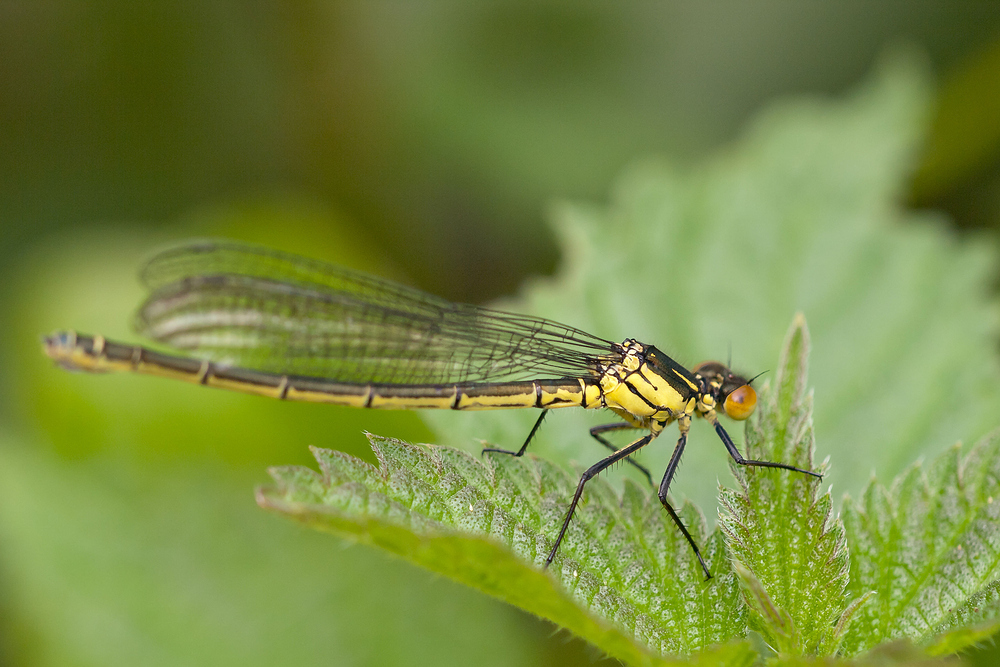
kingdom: Animalia
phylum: Arthropoda
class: Insecta
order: Odonata
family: Coenagrionidae
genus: Erythromma
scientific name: Erythromma najas
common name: Red-eyed damselfly
